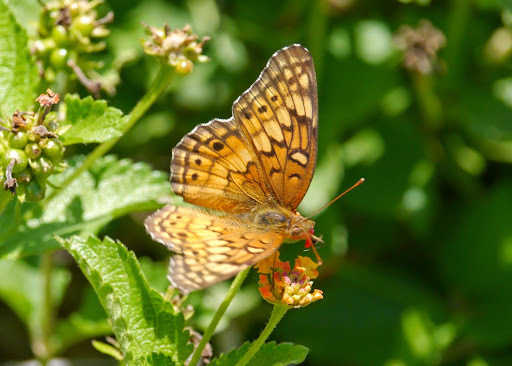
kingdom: Animalia
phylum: Arthropoda
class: Insecta
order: Lepidoptera
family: Nymphalidae
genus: Euptoieta
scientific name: Euptoieta claudia
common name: Variegated fritillary
